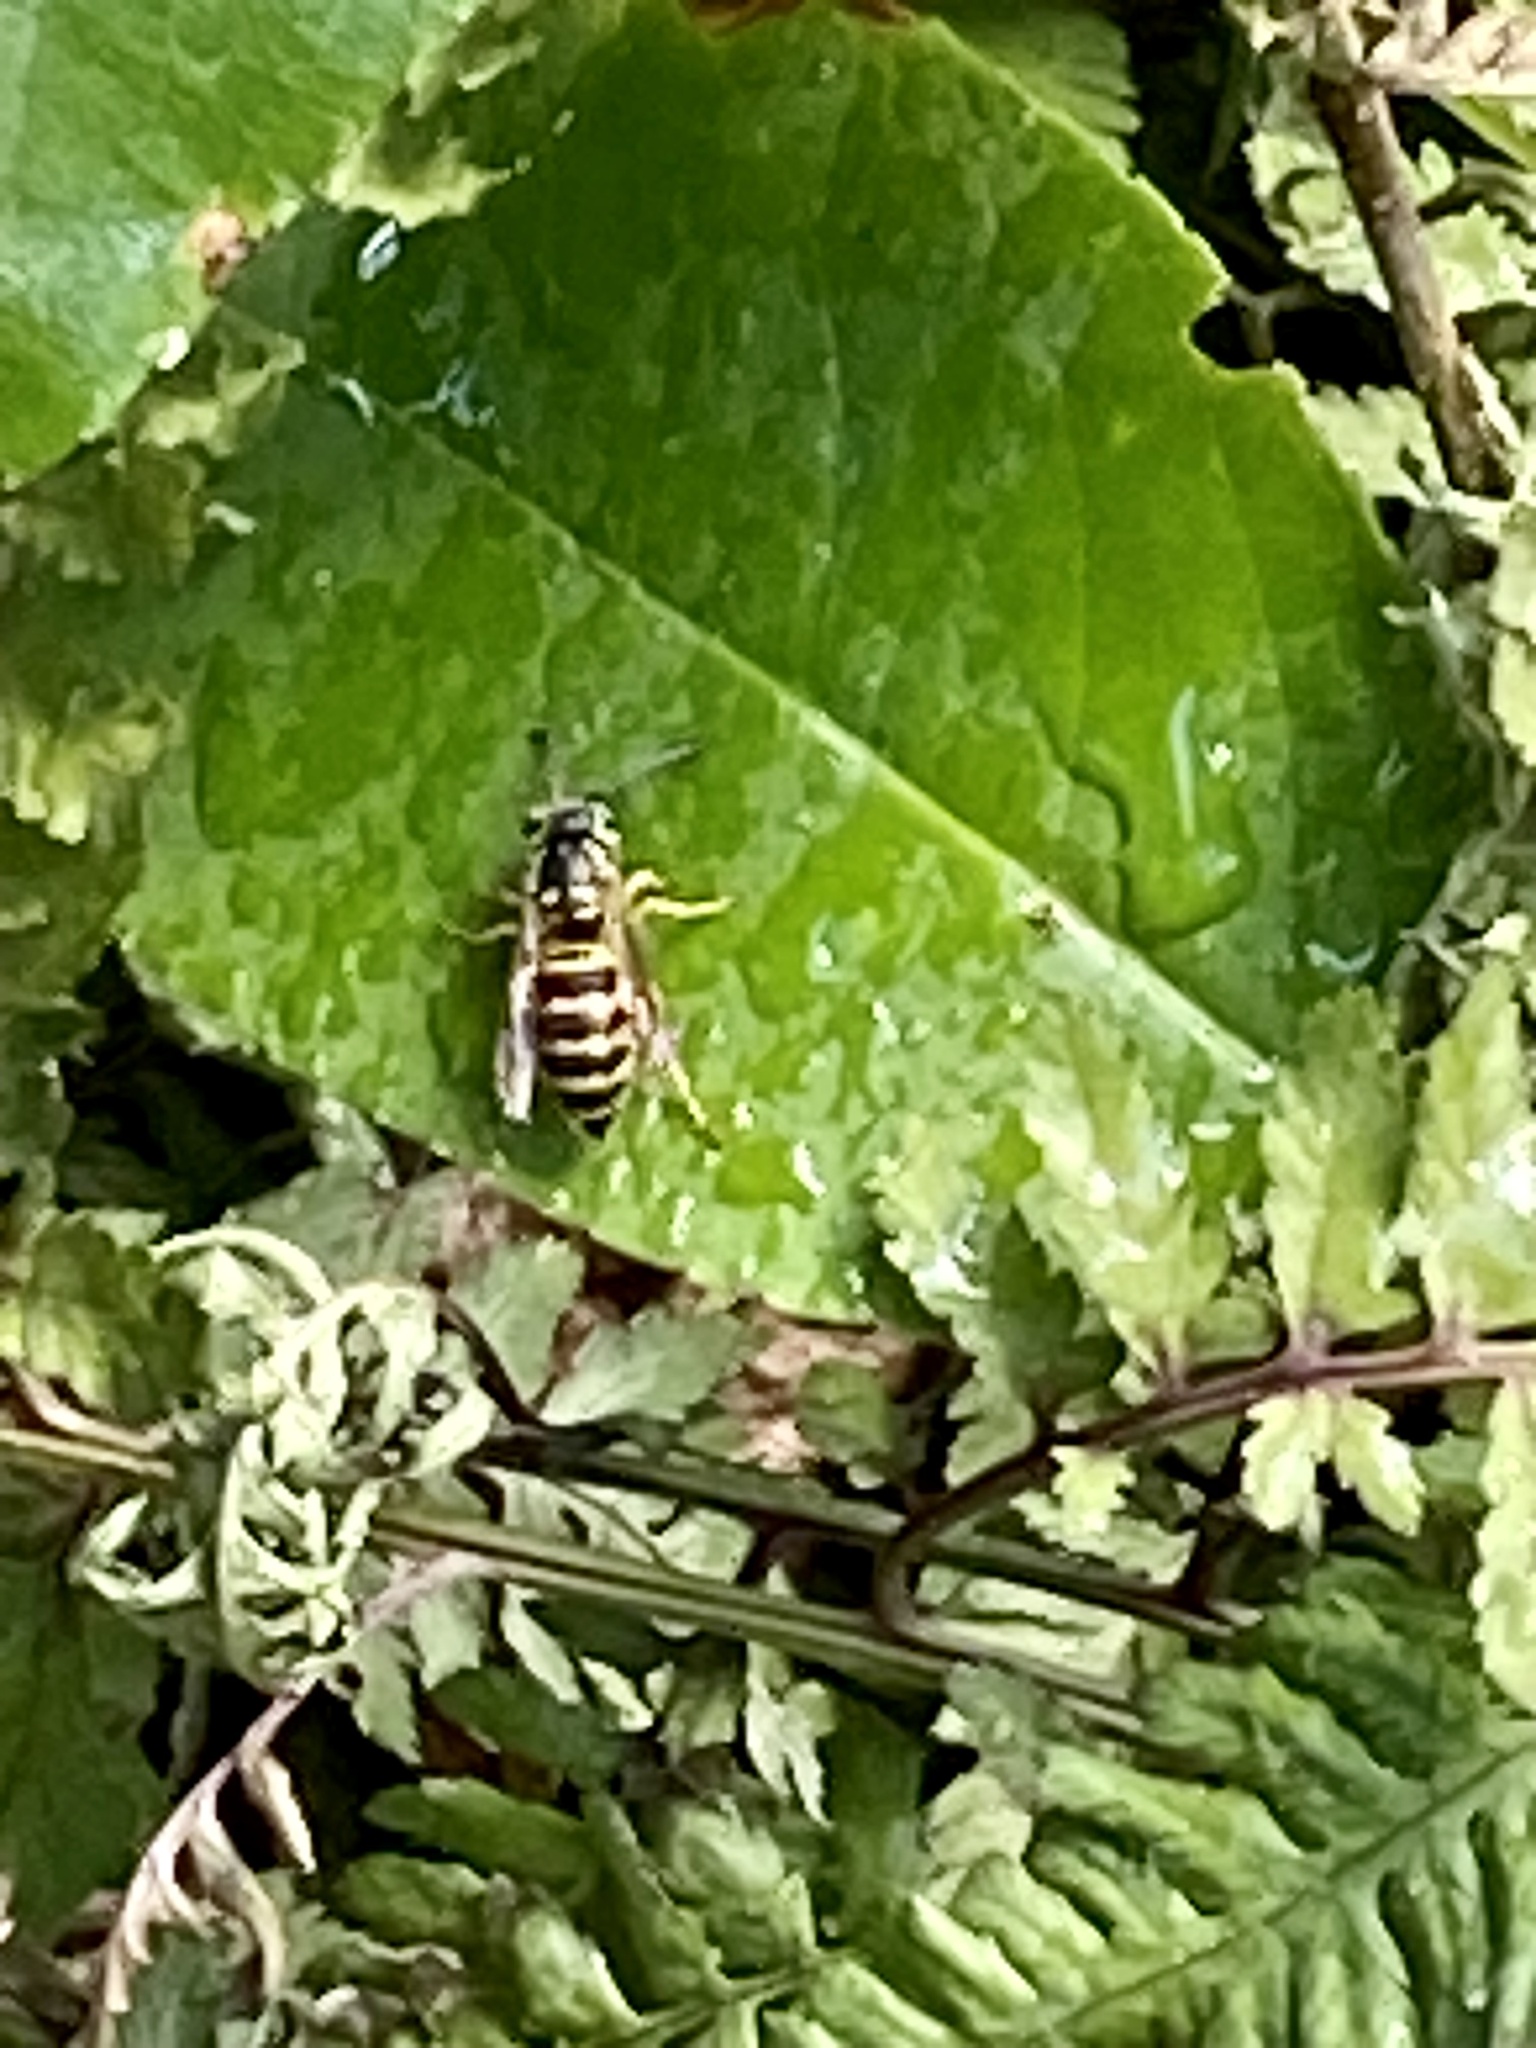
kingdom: Animalia
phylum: Arthropoda
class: Insecta
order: Hymenoptera
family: Vespidae
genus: Vespula
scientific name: Vespula maculifrons
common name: Eastern yellowjacket
